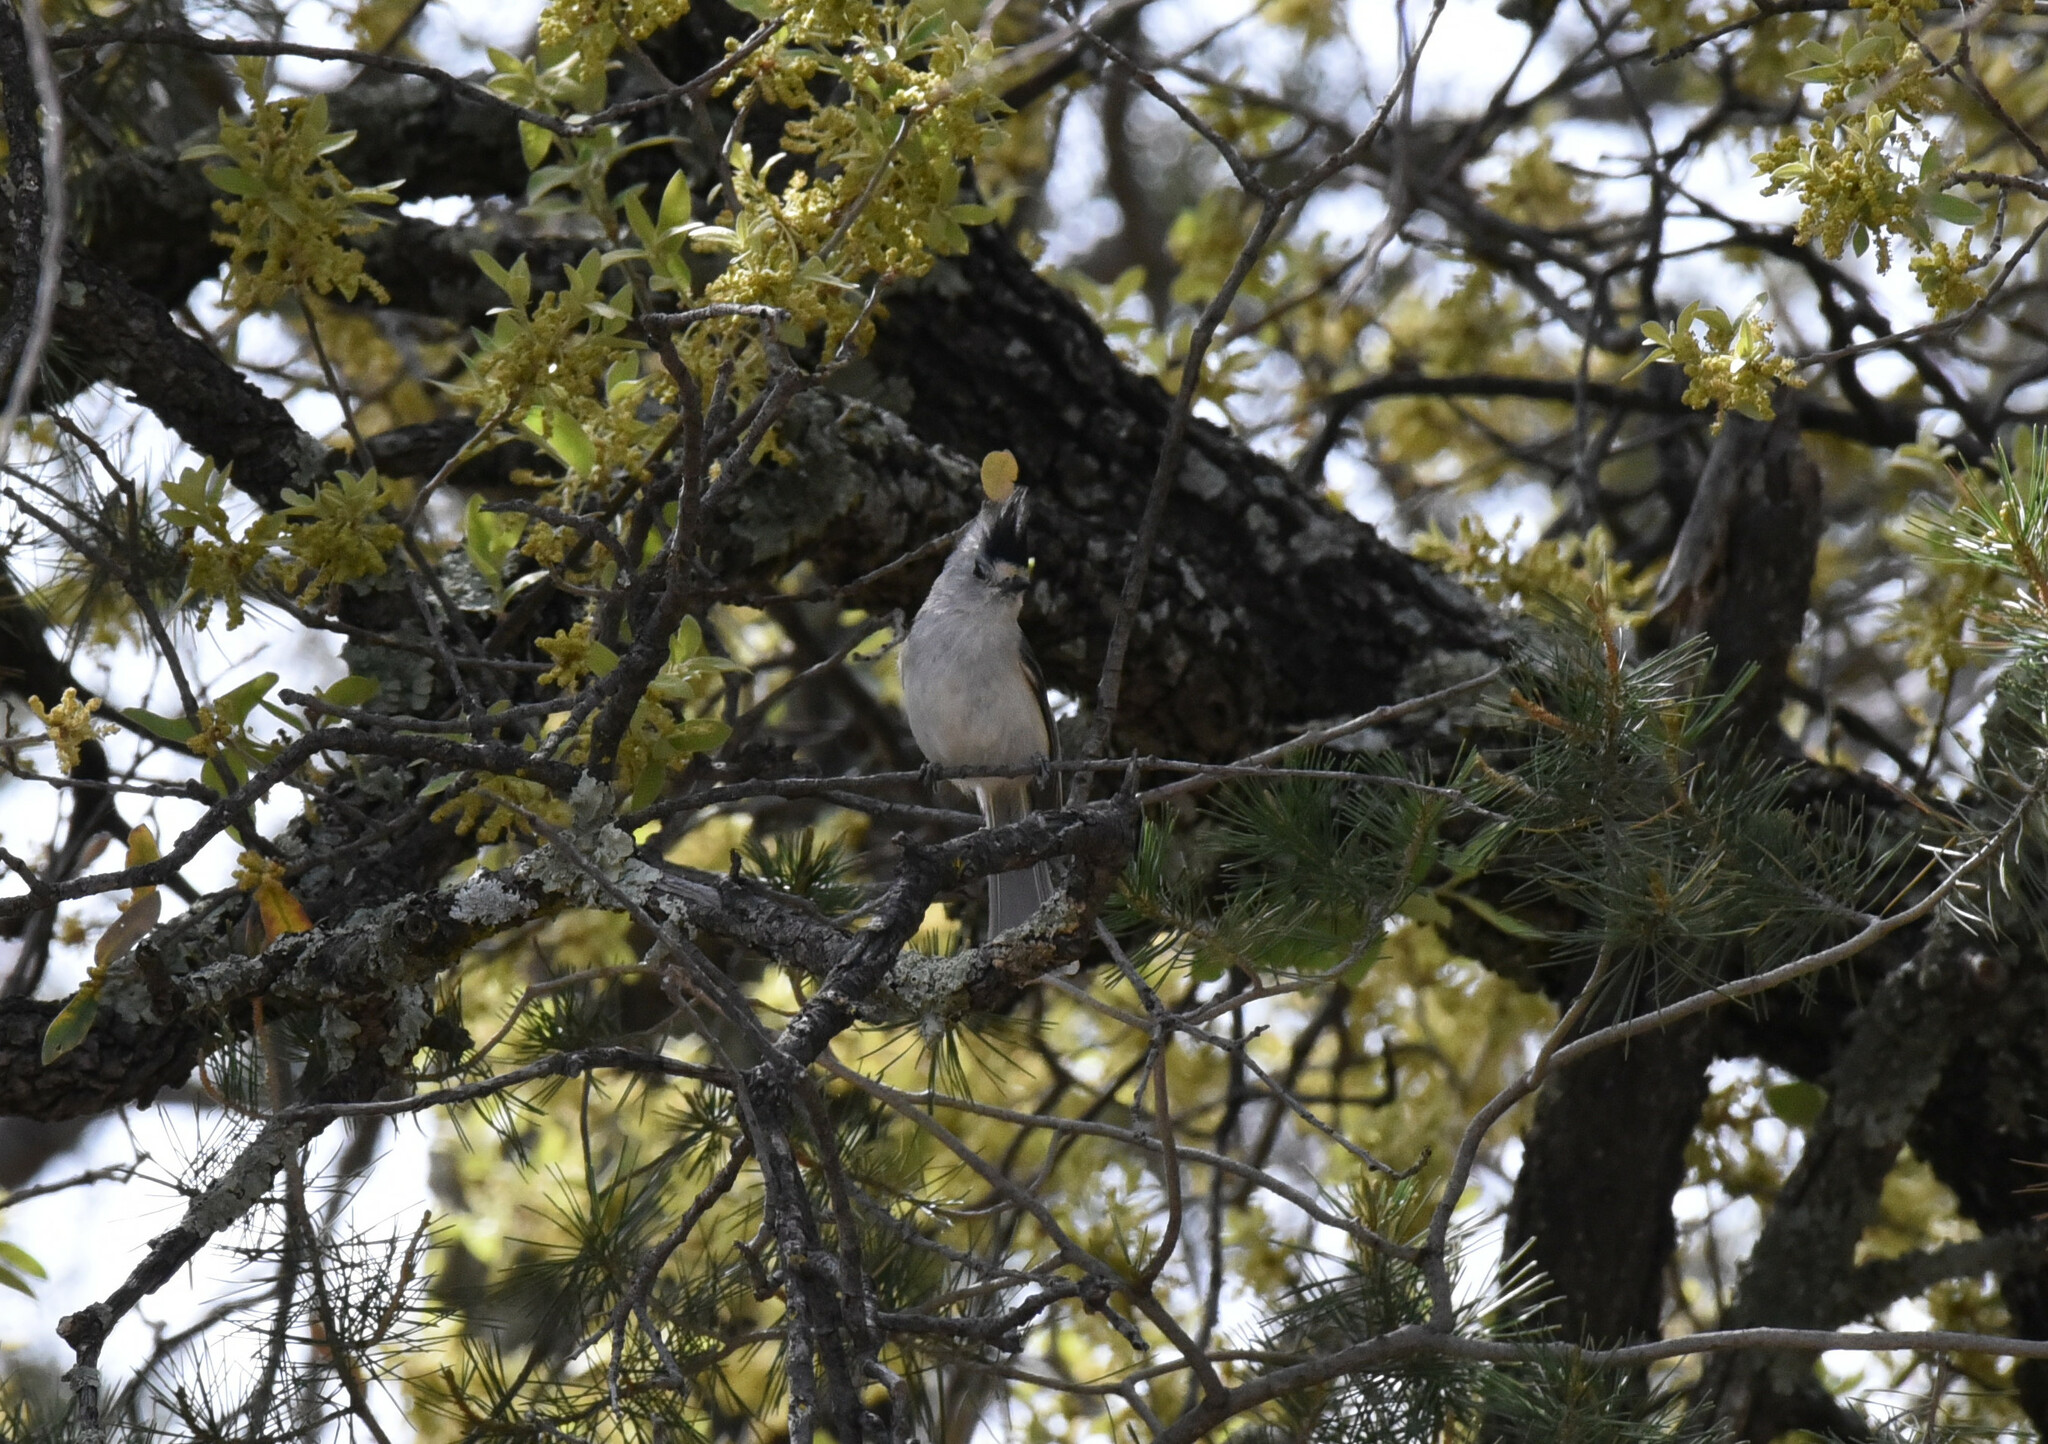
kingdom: Animalia
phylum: Chordata
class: Aves
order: Passeriformes
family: Paridae
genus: Baeolophus
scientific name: Baeolophus atricristatus
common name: Black-crested titmouse
